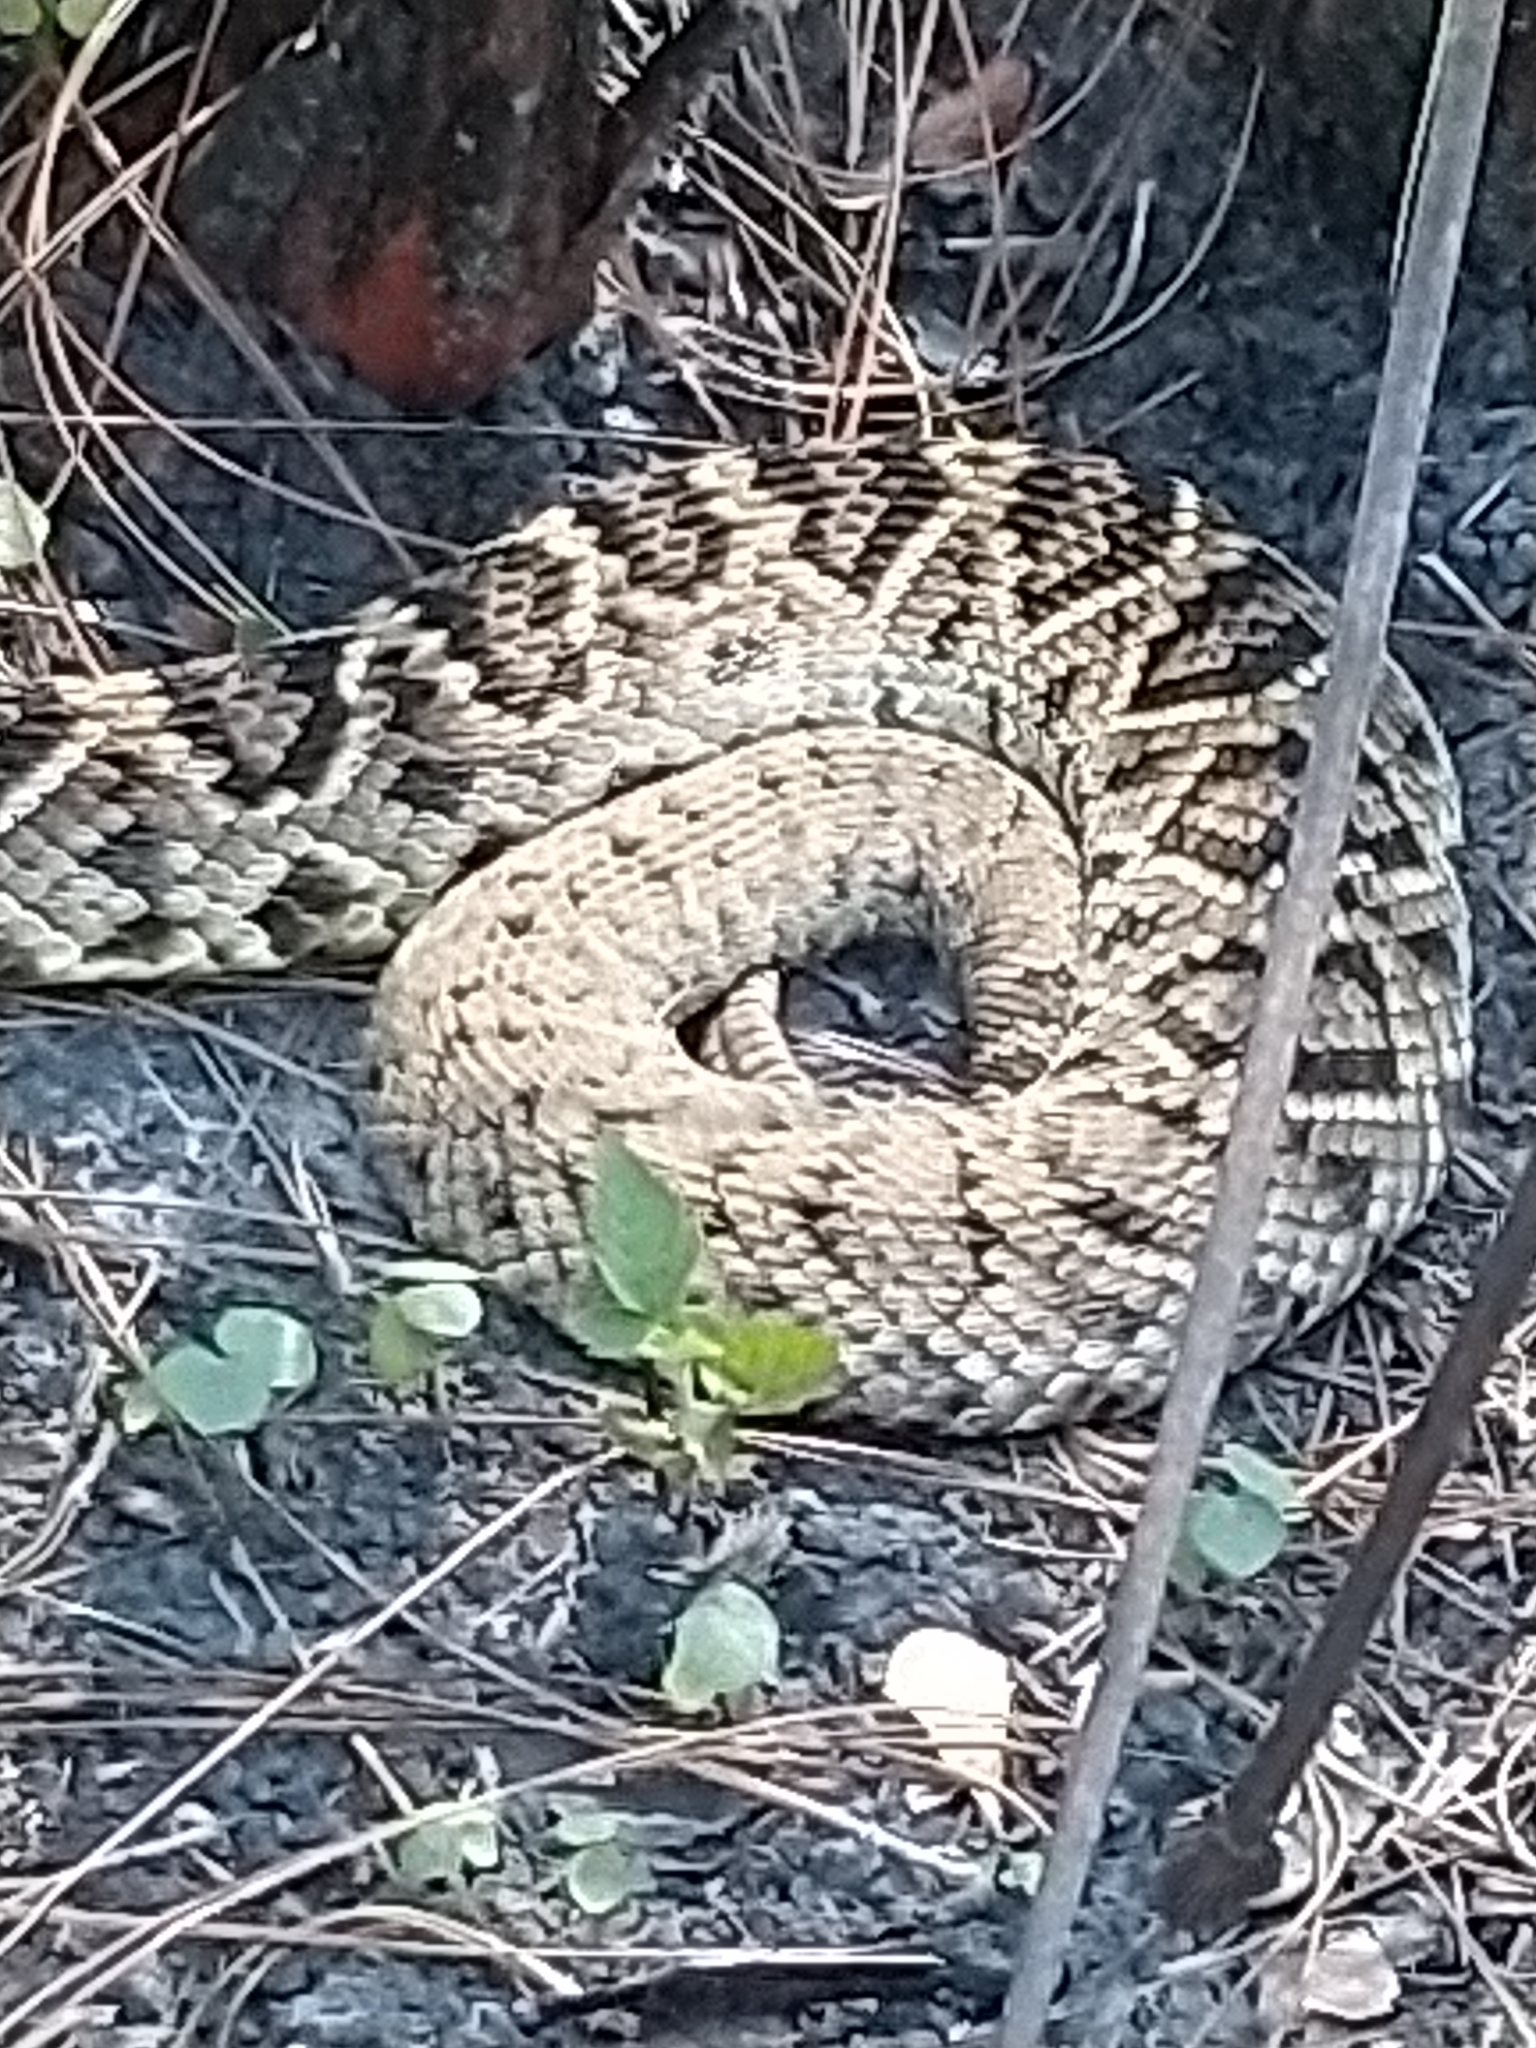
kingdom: Animalia
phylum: Chordata
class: Squamata
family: Viperidae
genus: Crotalus
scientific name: Crotalus adamanteus
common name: Eastern diamondback rattlesnake
